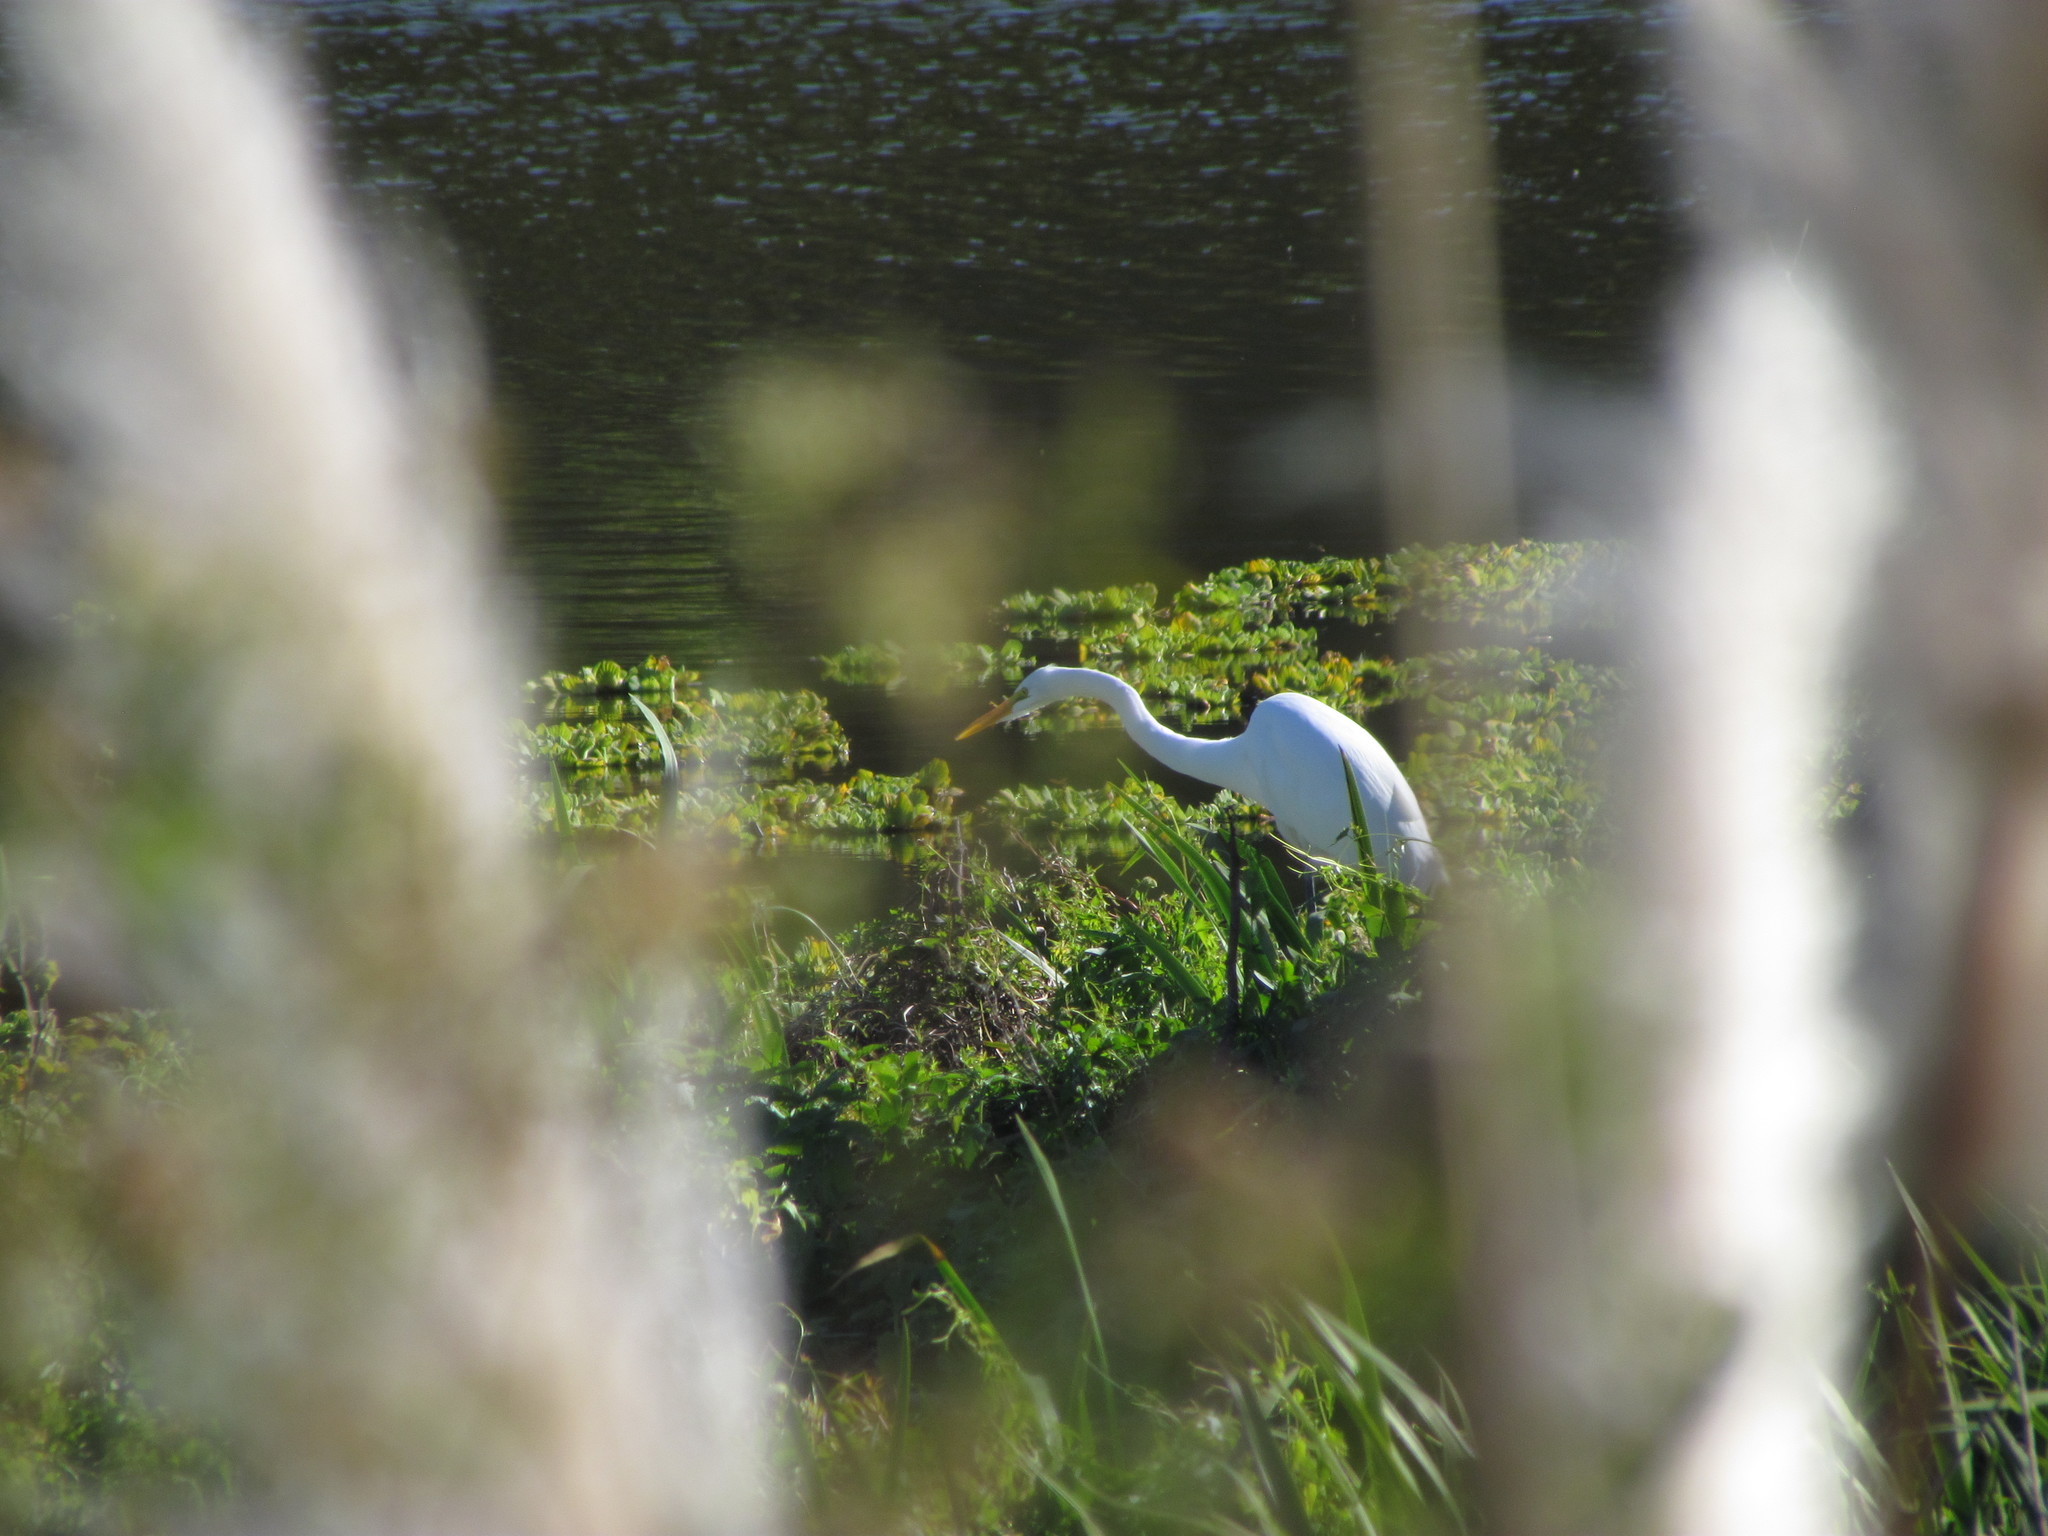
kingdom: Animalia
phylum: Chordata
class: Aves
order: Pelecaniformes
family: Ardeidae
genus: Ardea
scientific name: Ardea alba
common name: Great egret
